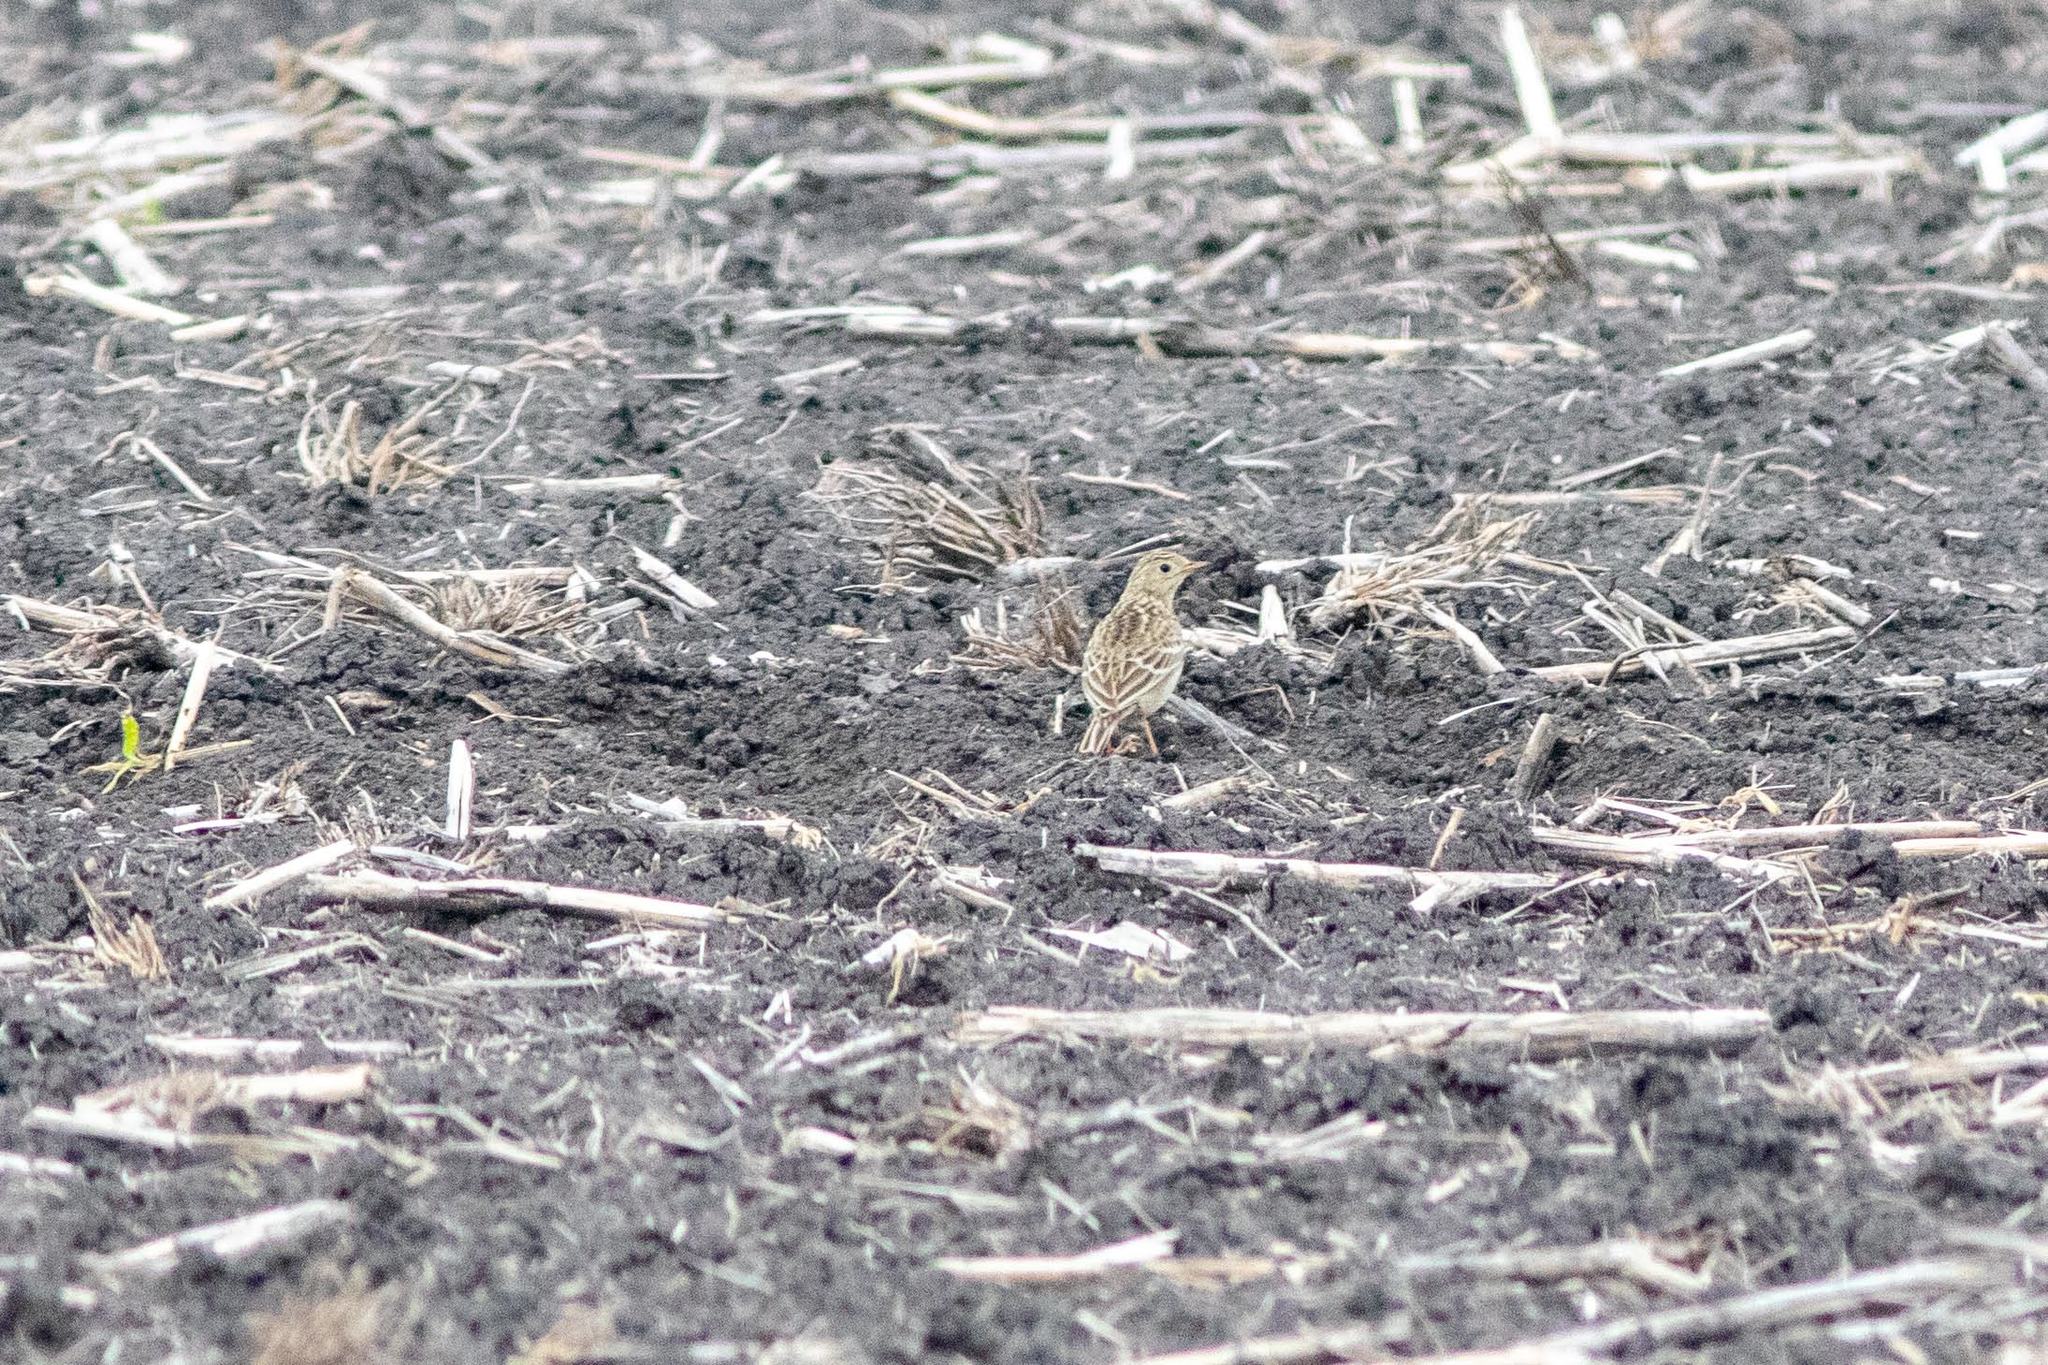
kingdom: Animalia
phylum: Chordata
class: Aves
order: Passeriformes
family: Motacillidae
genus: Anthus
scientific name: Anthus spragueii
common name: Sprague's pipit
